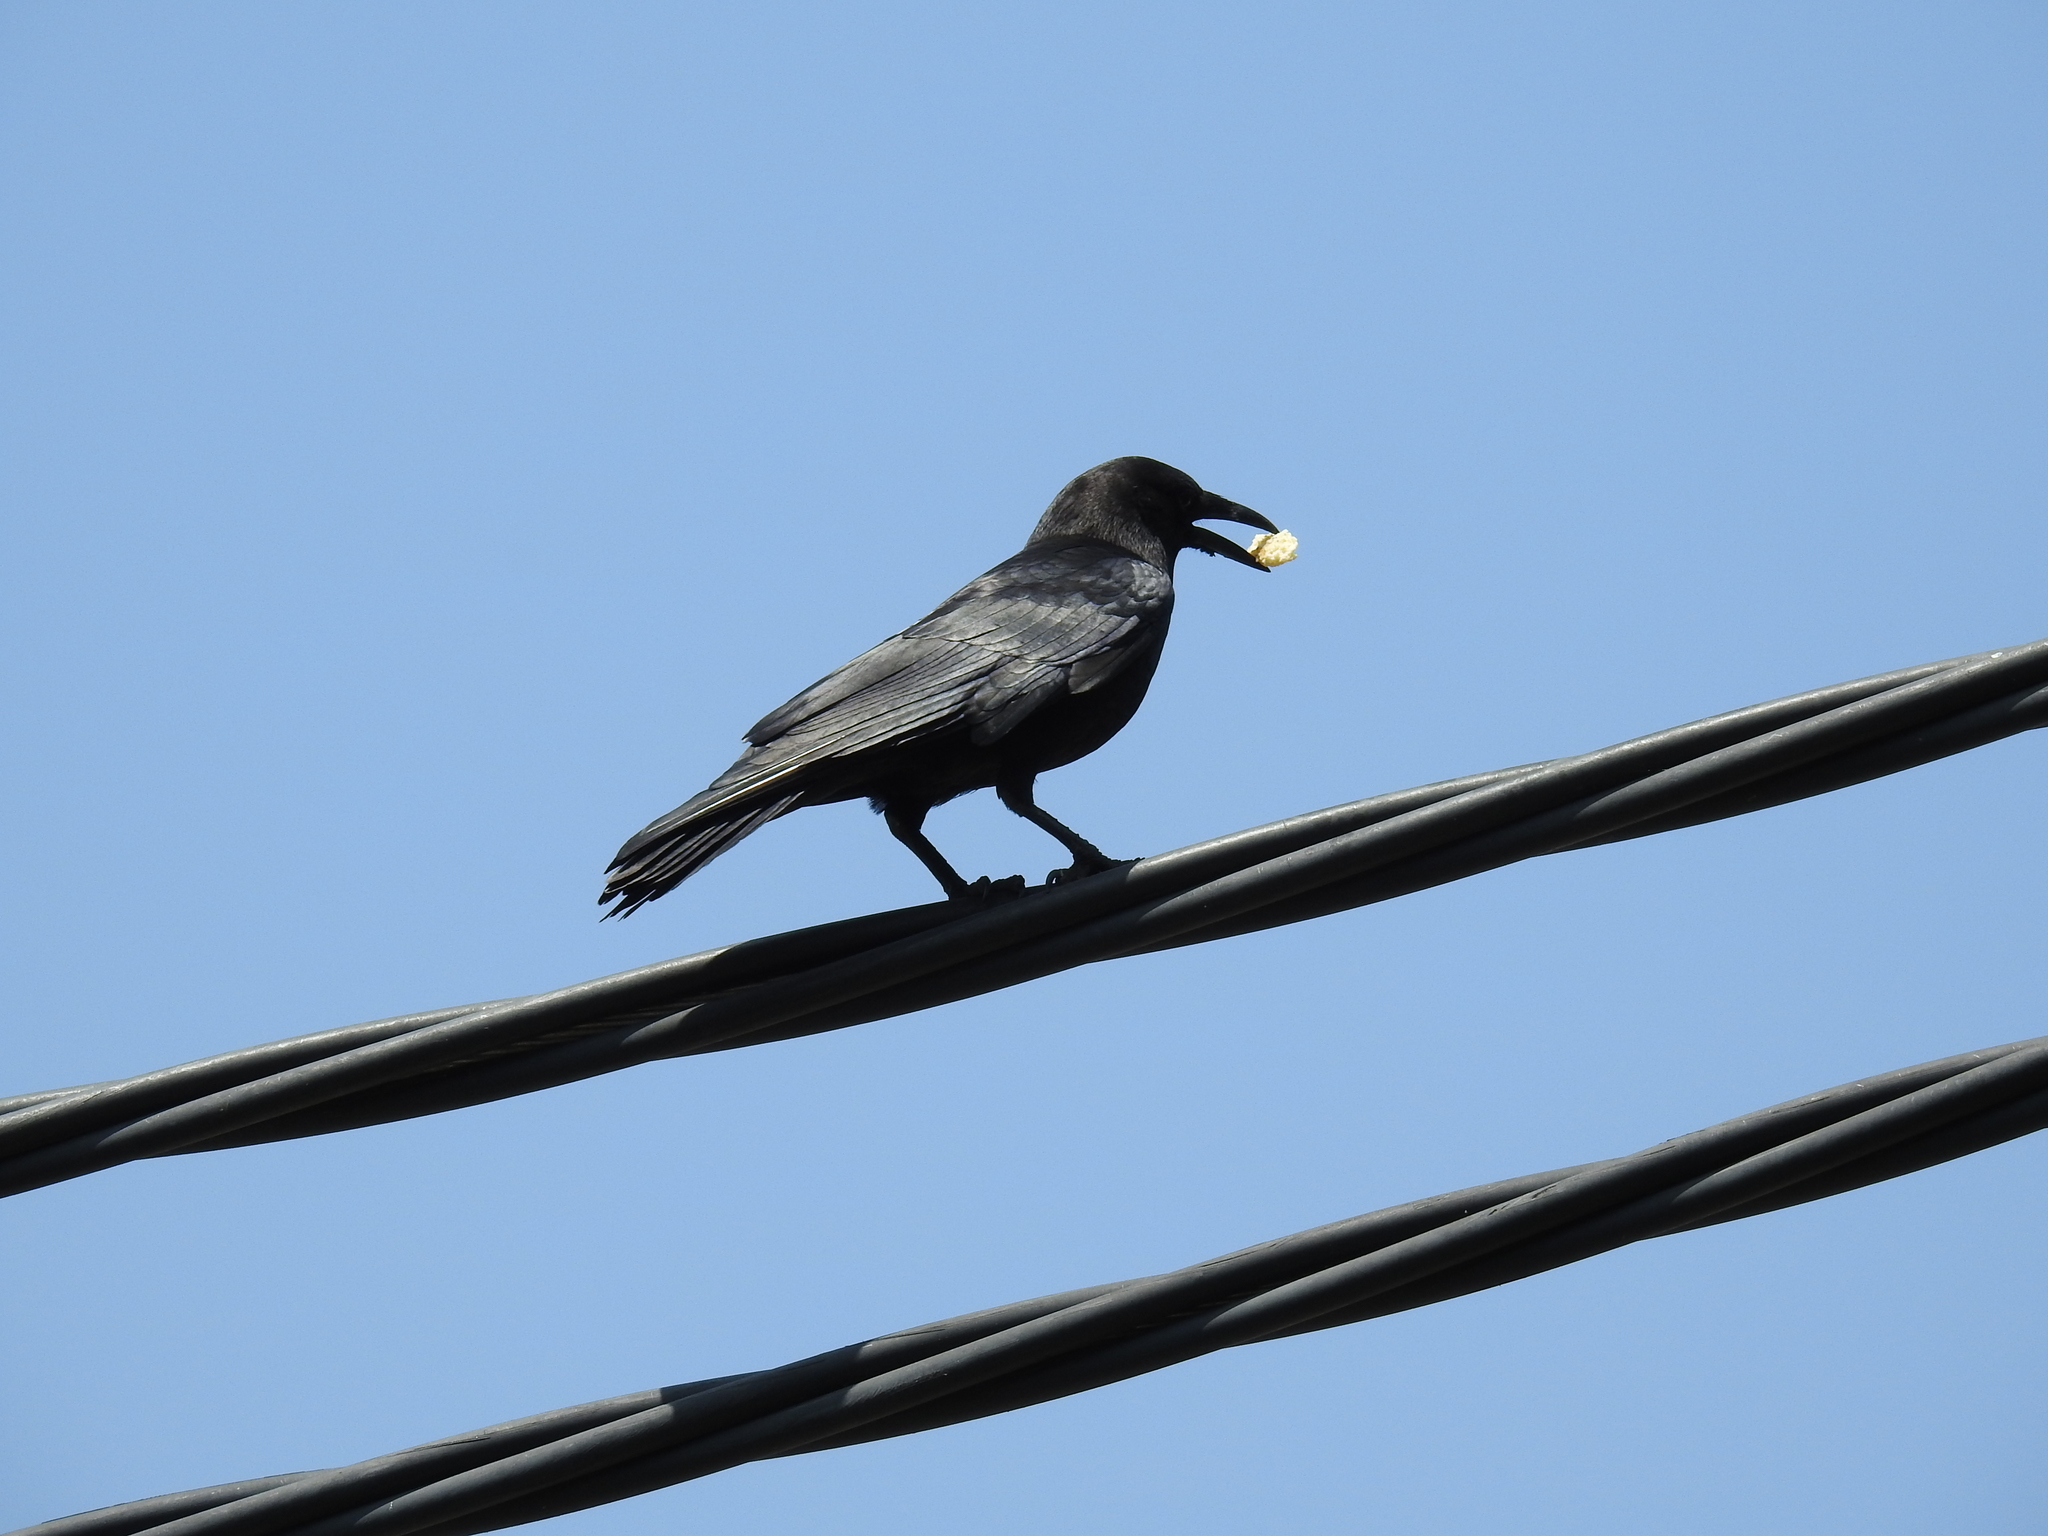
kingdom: Animalia
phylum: Chordata
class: Aves
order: Passeriformes
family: Corvidae
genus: Corvus
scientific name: Corvus brachyrhynchos
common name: American crow
